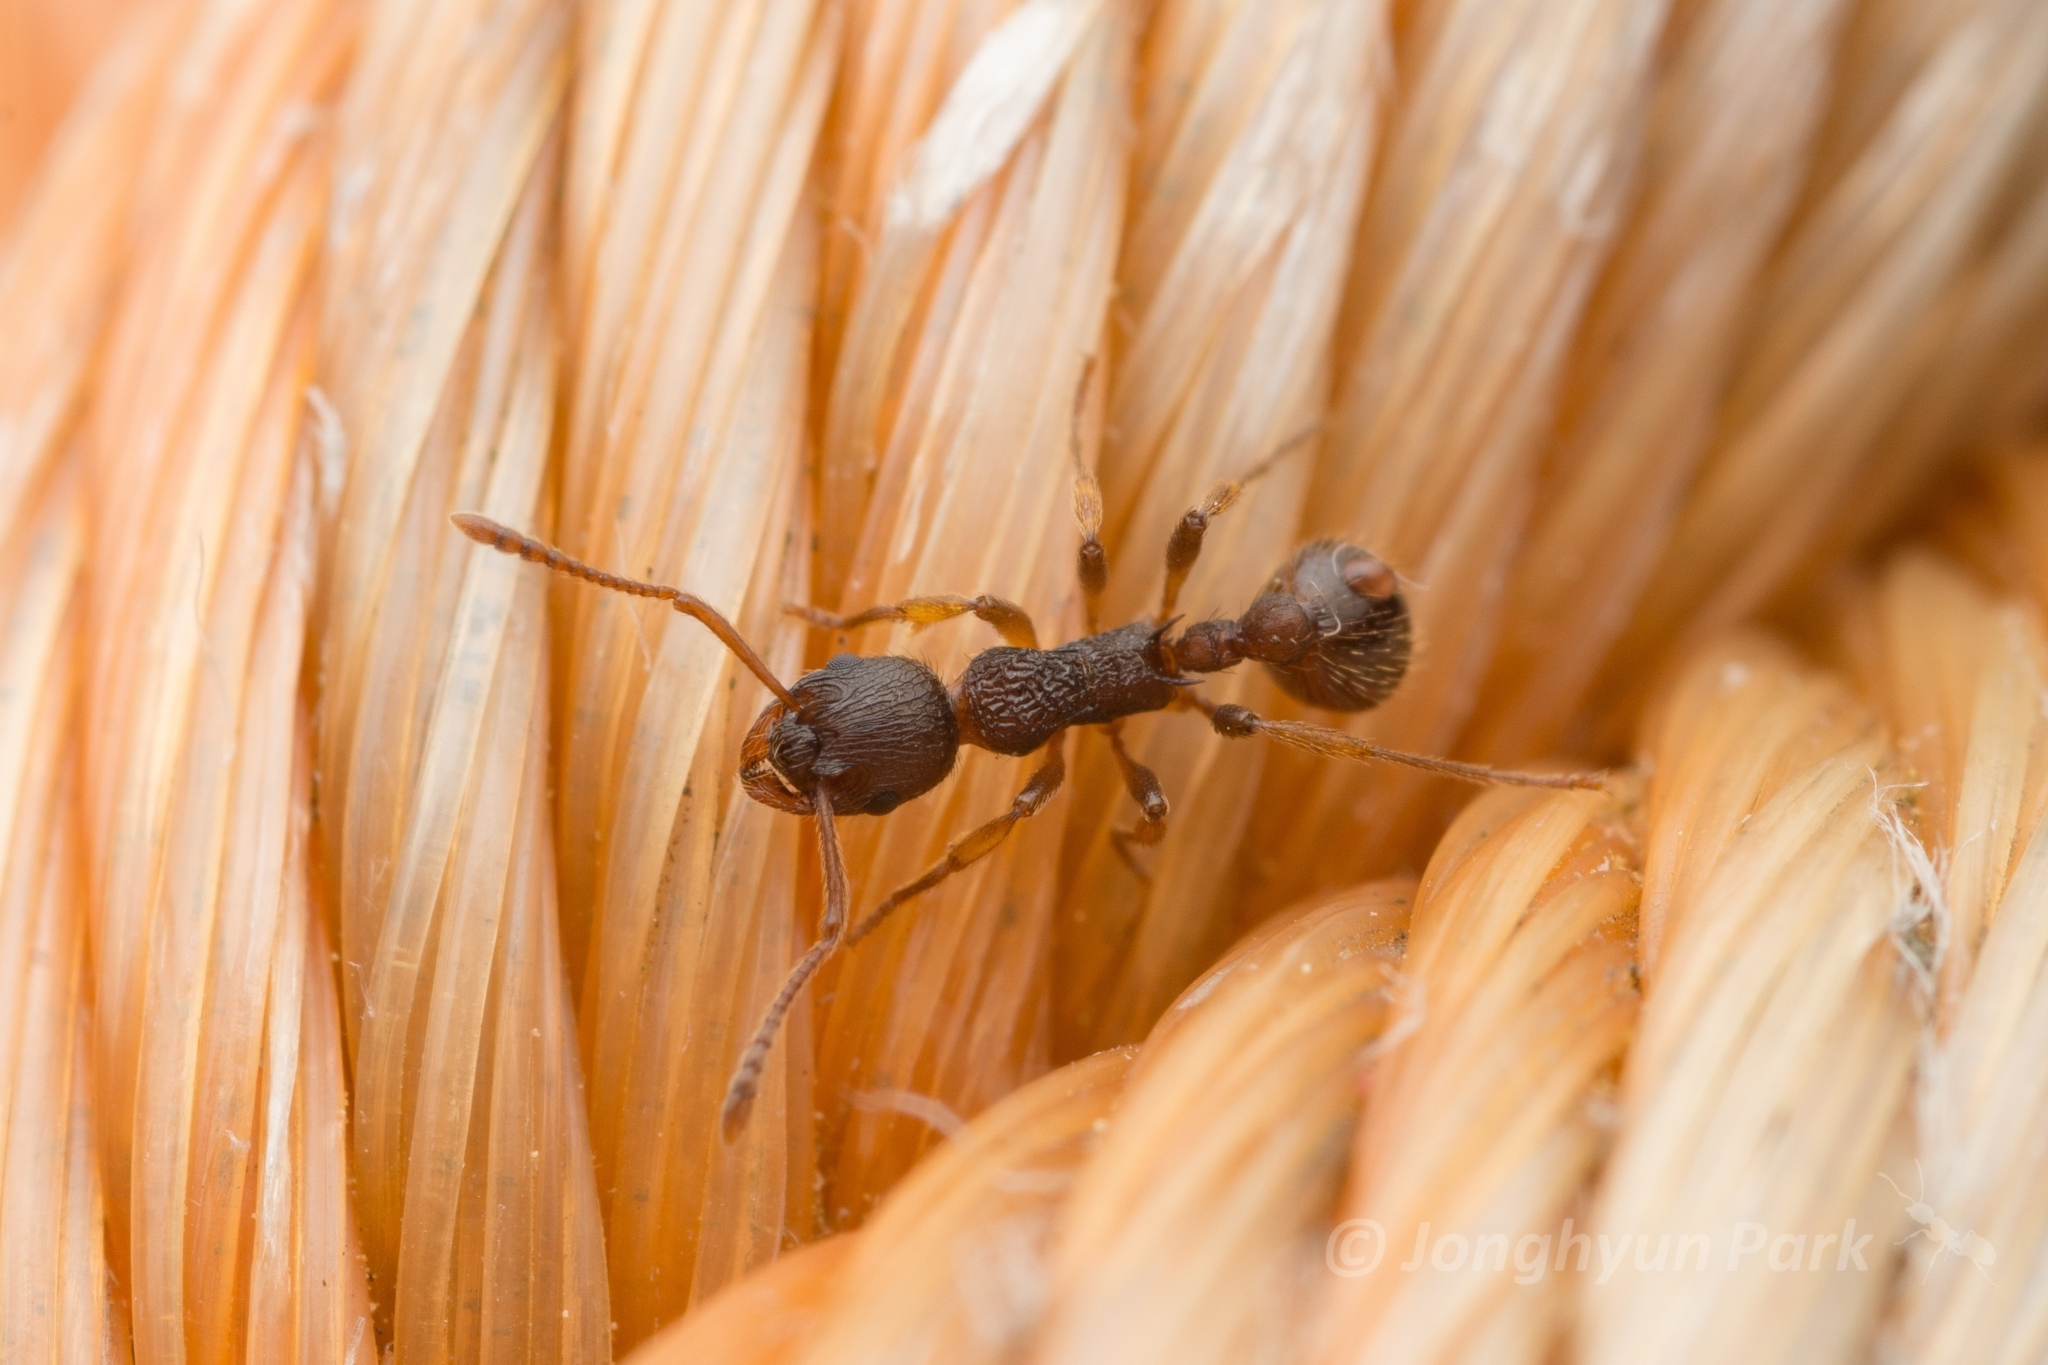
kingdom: Animalia
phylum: Arthropoda
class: Insecta
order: Hymenoptera
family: Formicidae
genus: Myrmica
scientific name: Myrmica kotokui
